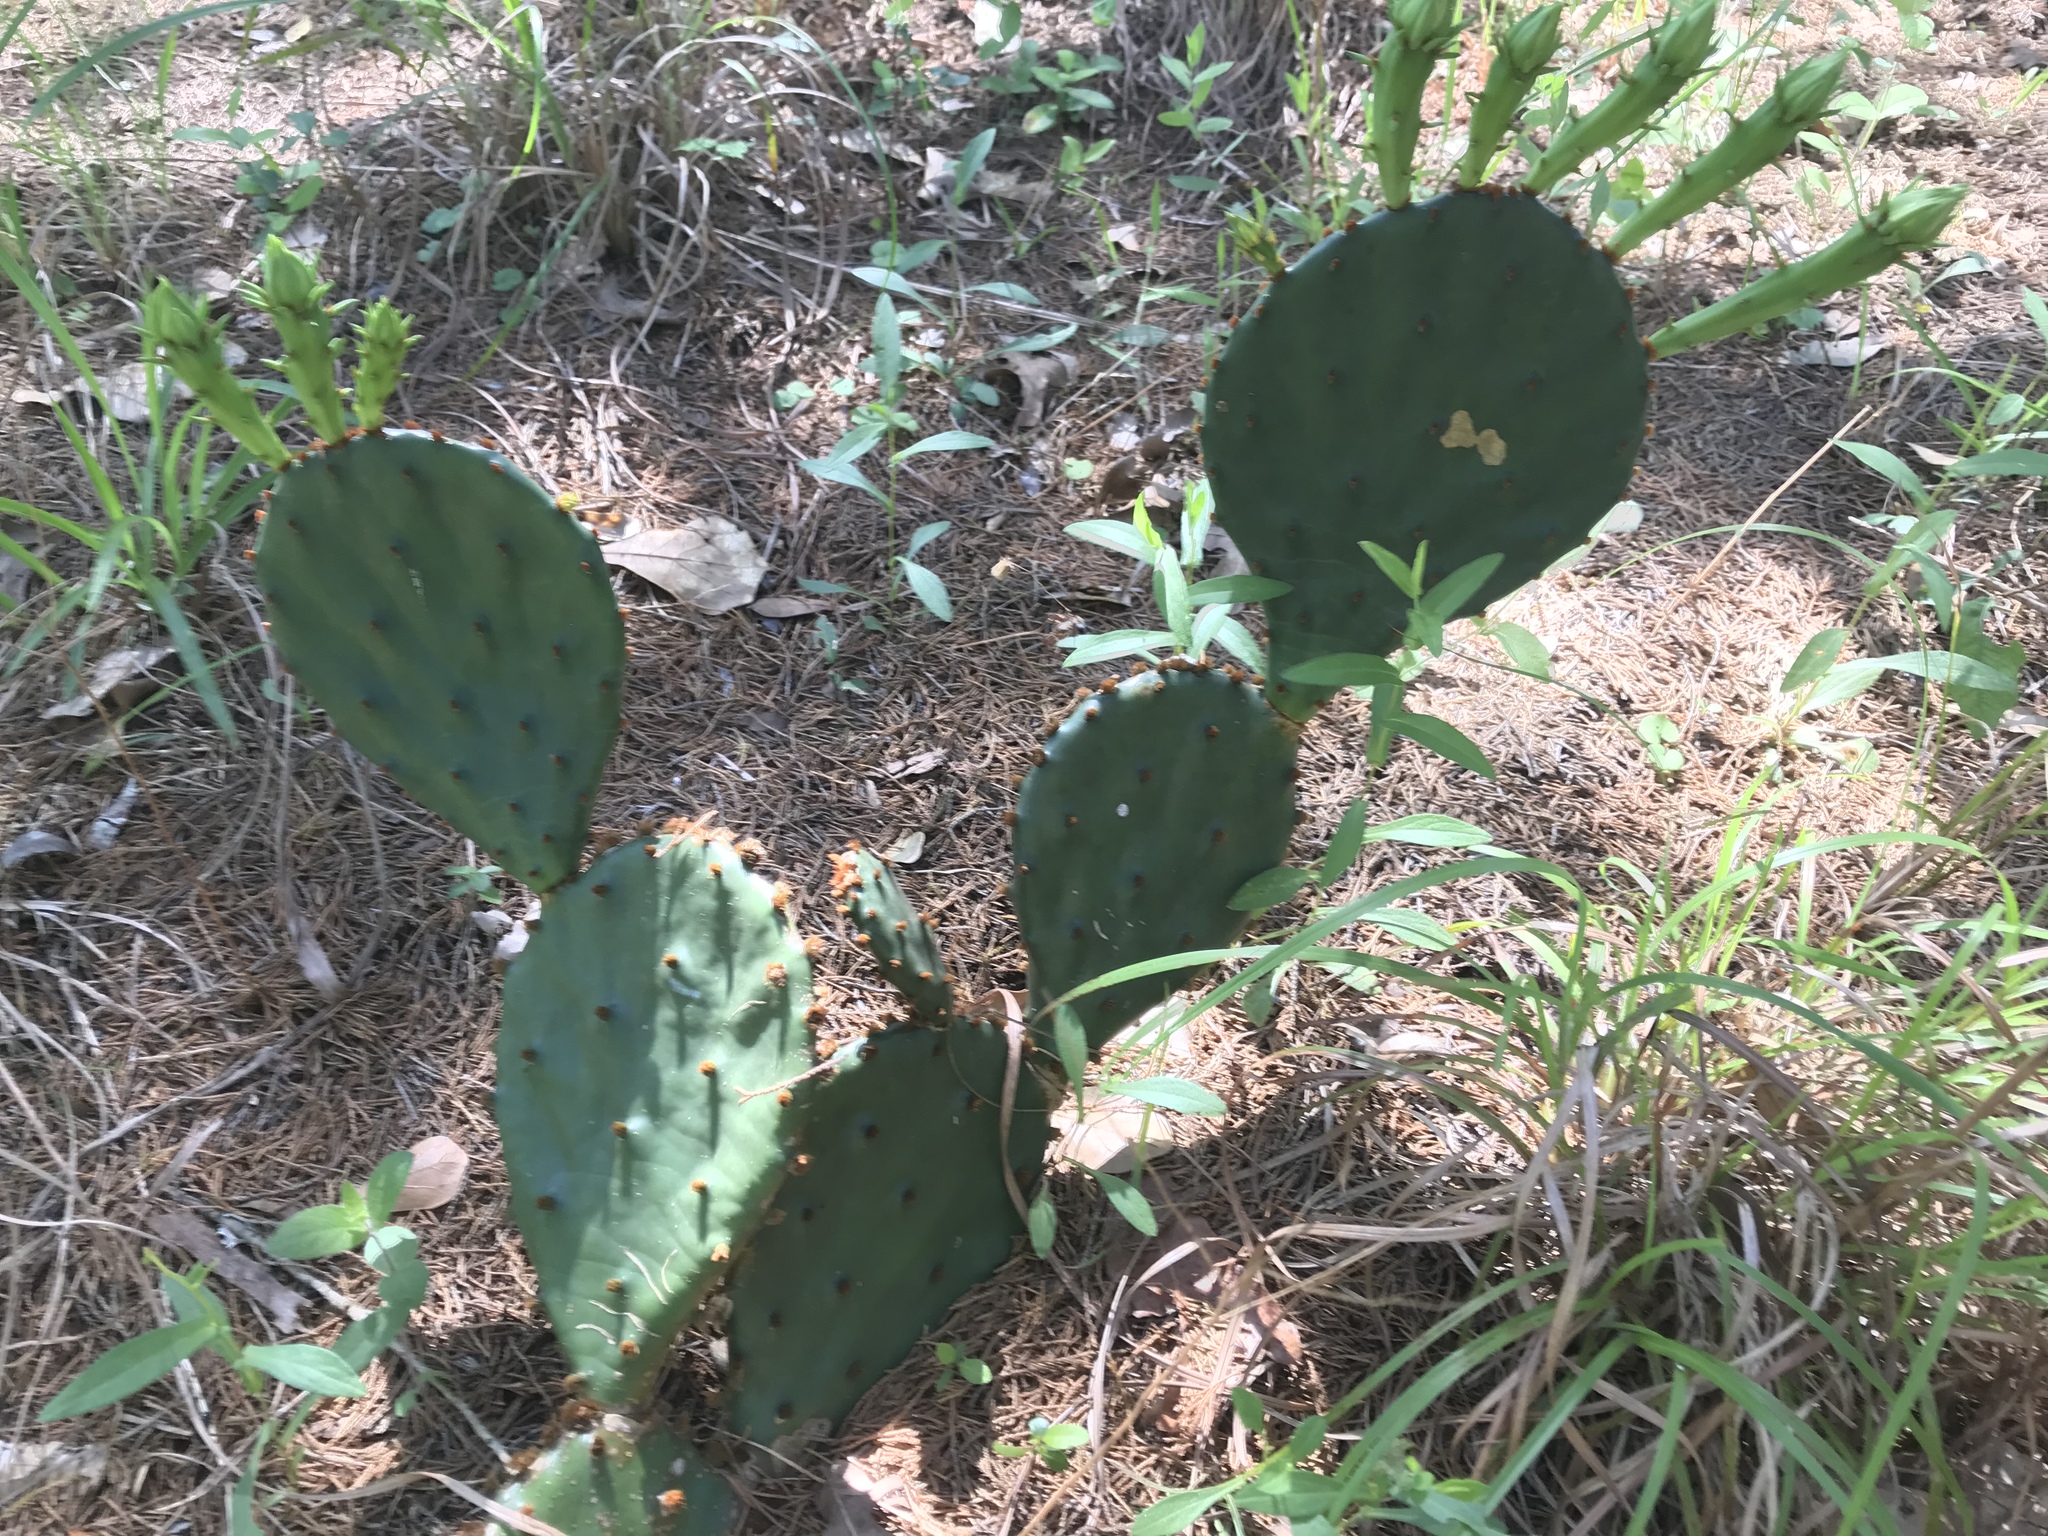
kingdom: Plantae
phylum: Tracheophyta
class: Magnoliopsida
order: Caryophyllales
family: Cactaceae
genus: Opuntia
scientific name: Opuntia macrorhiza
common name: Grassland pricklypear
